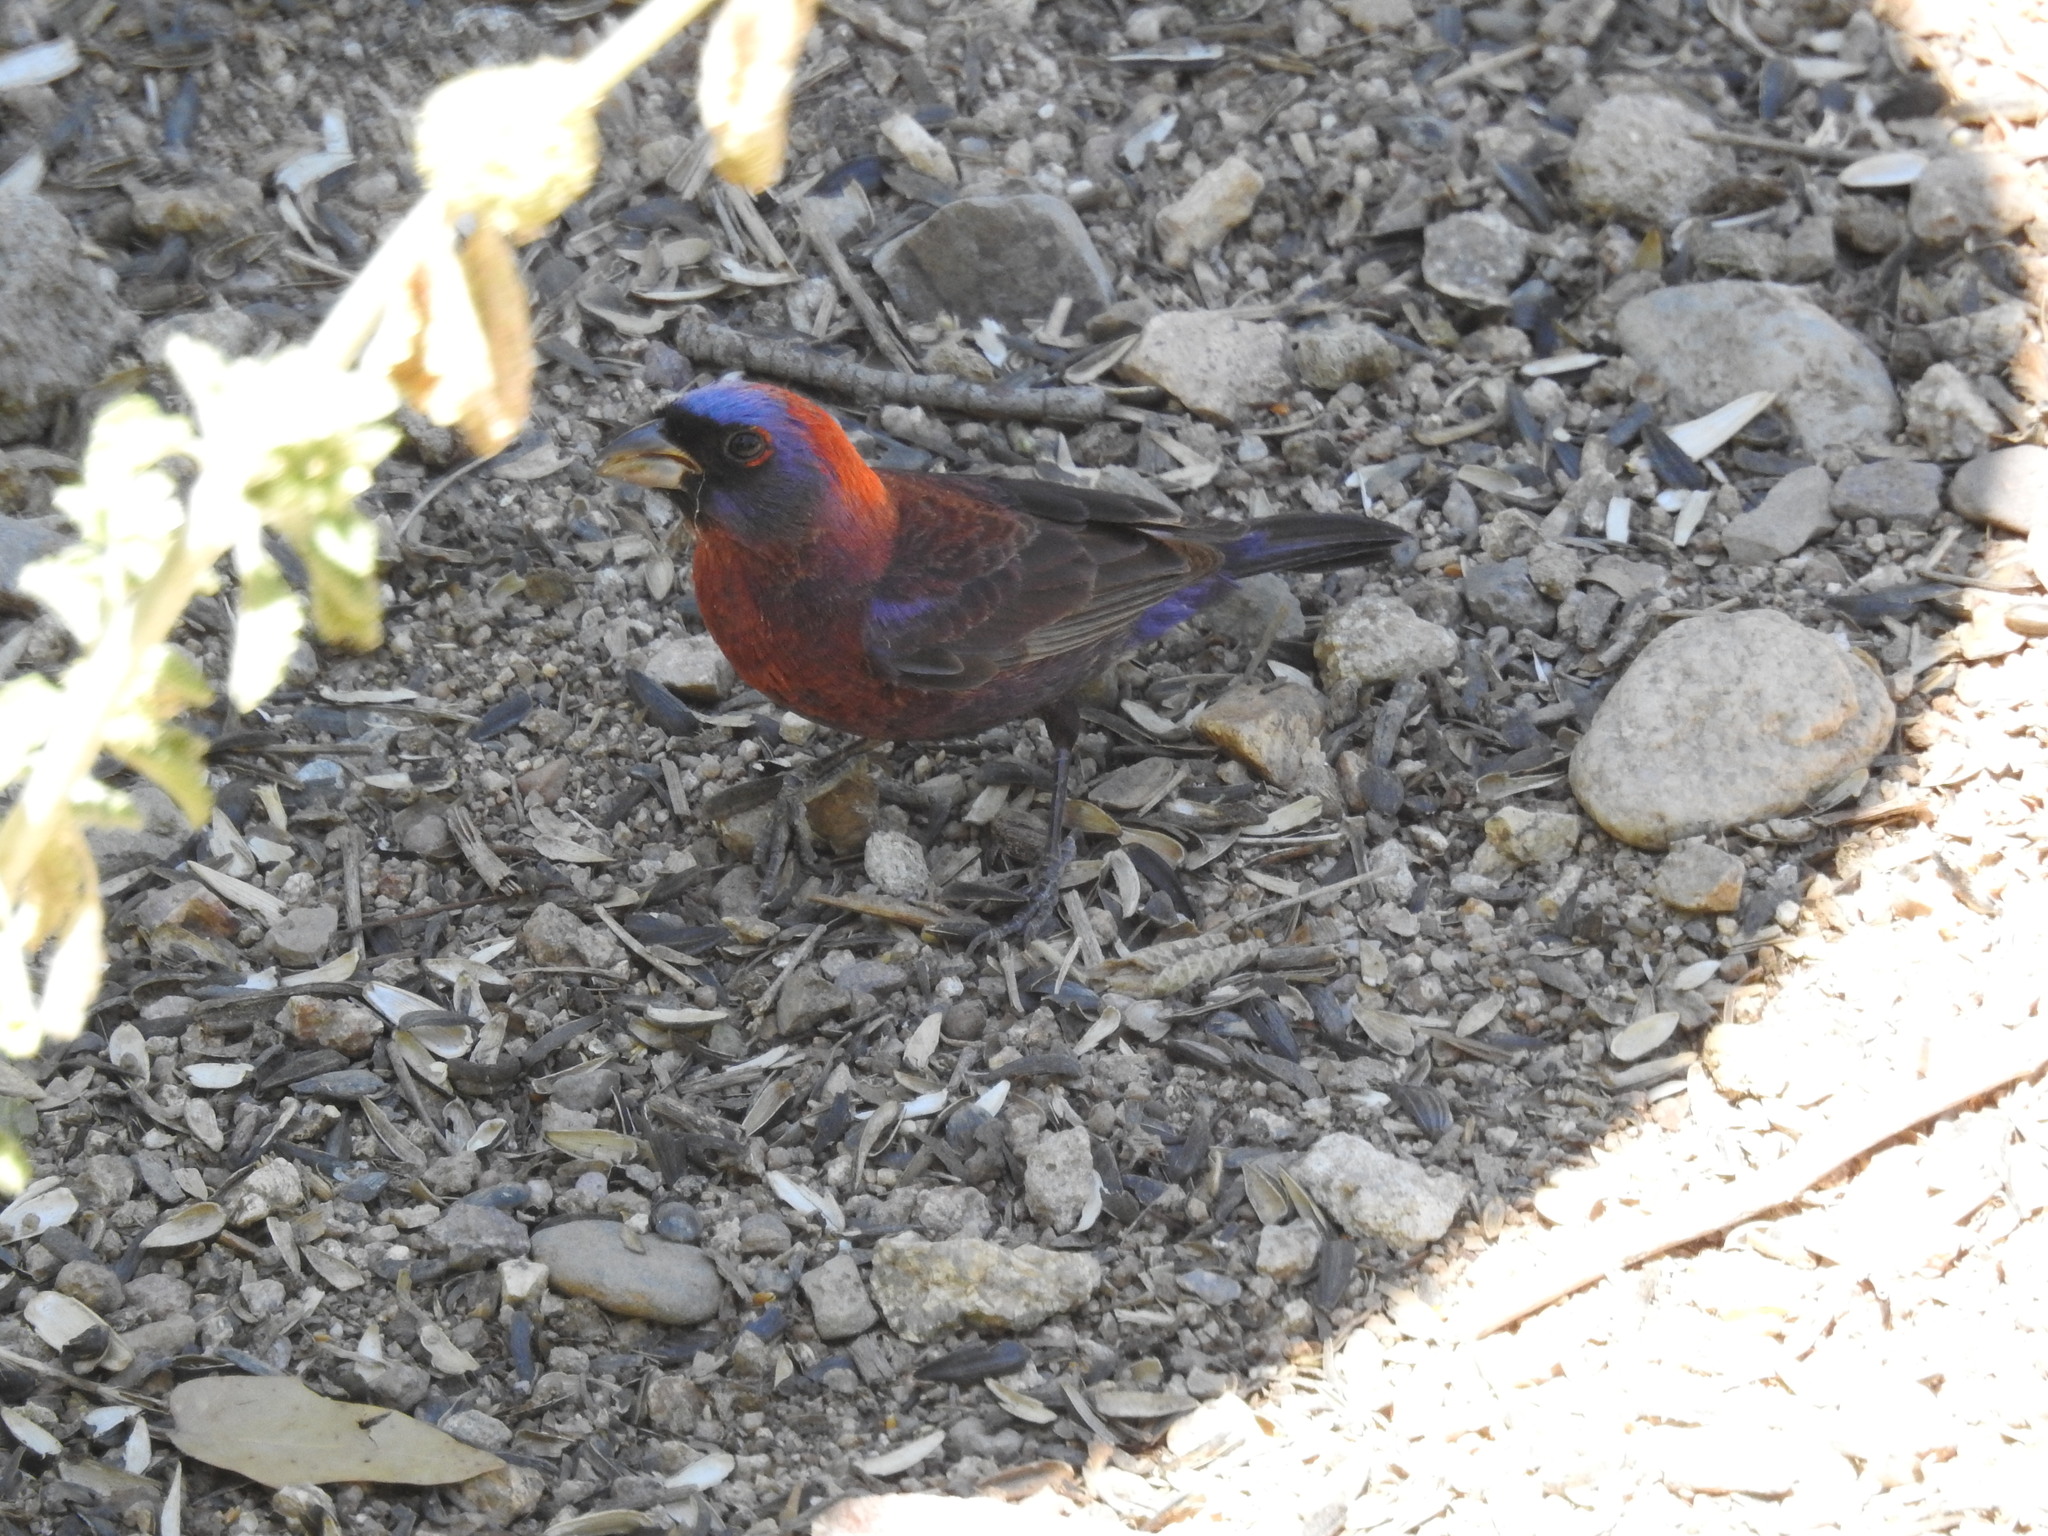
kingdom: Animalia
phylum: Chordata
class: Aves
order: Passeriformes
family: Cardinalidae
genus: Passerina
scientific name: Passerina versicolor
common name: Varied bunting
